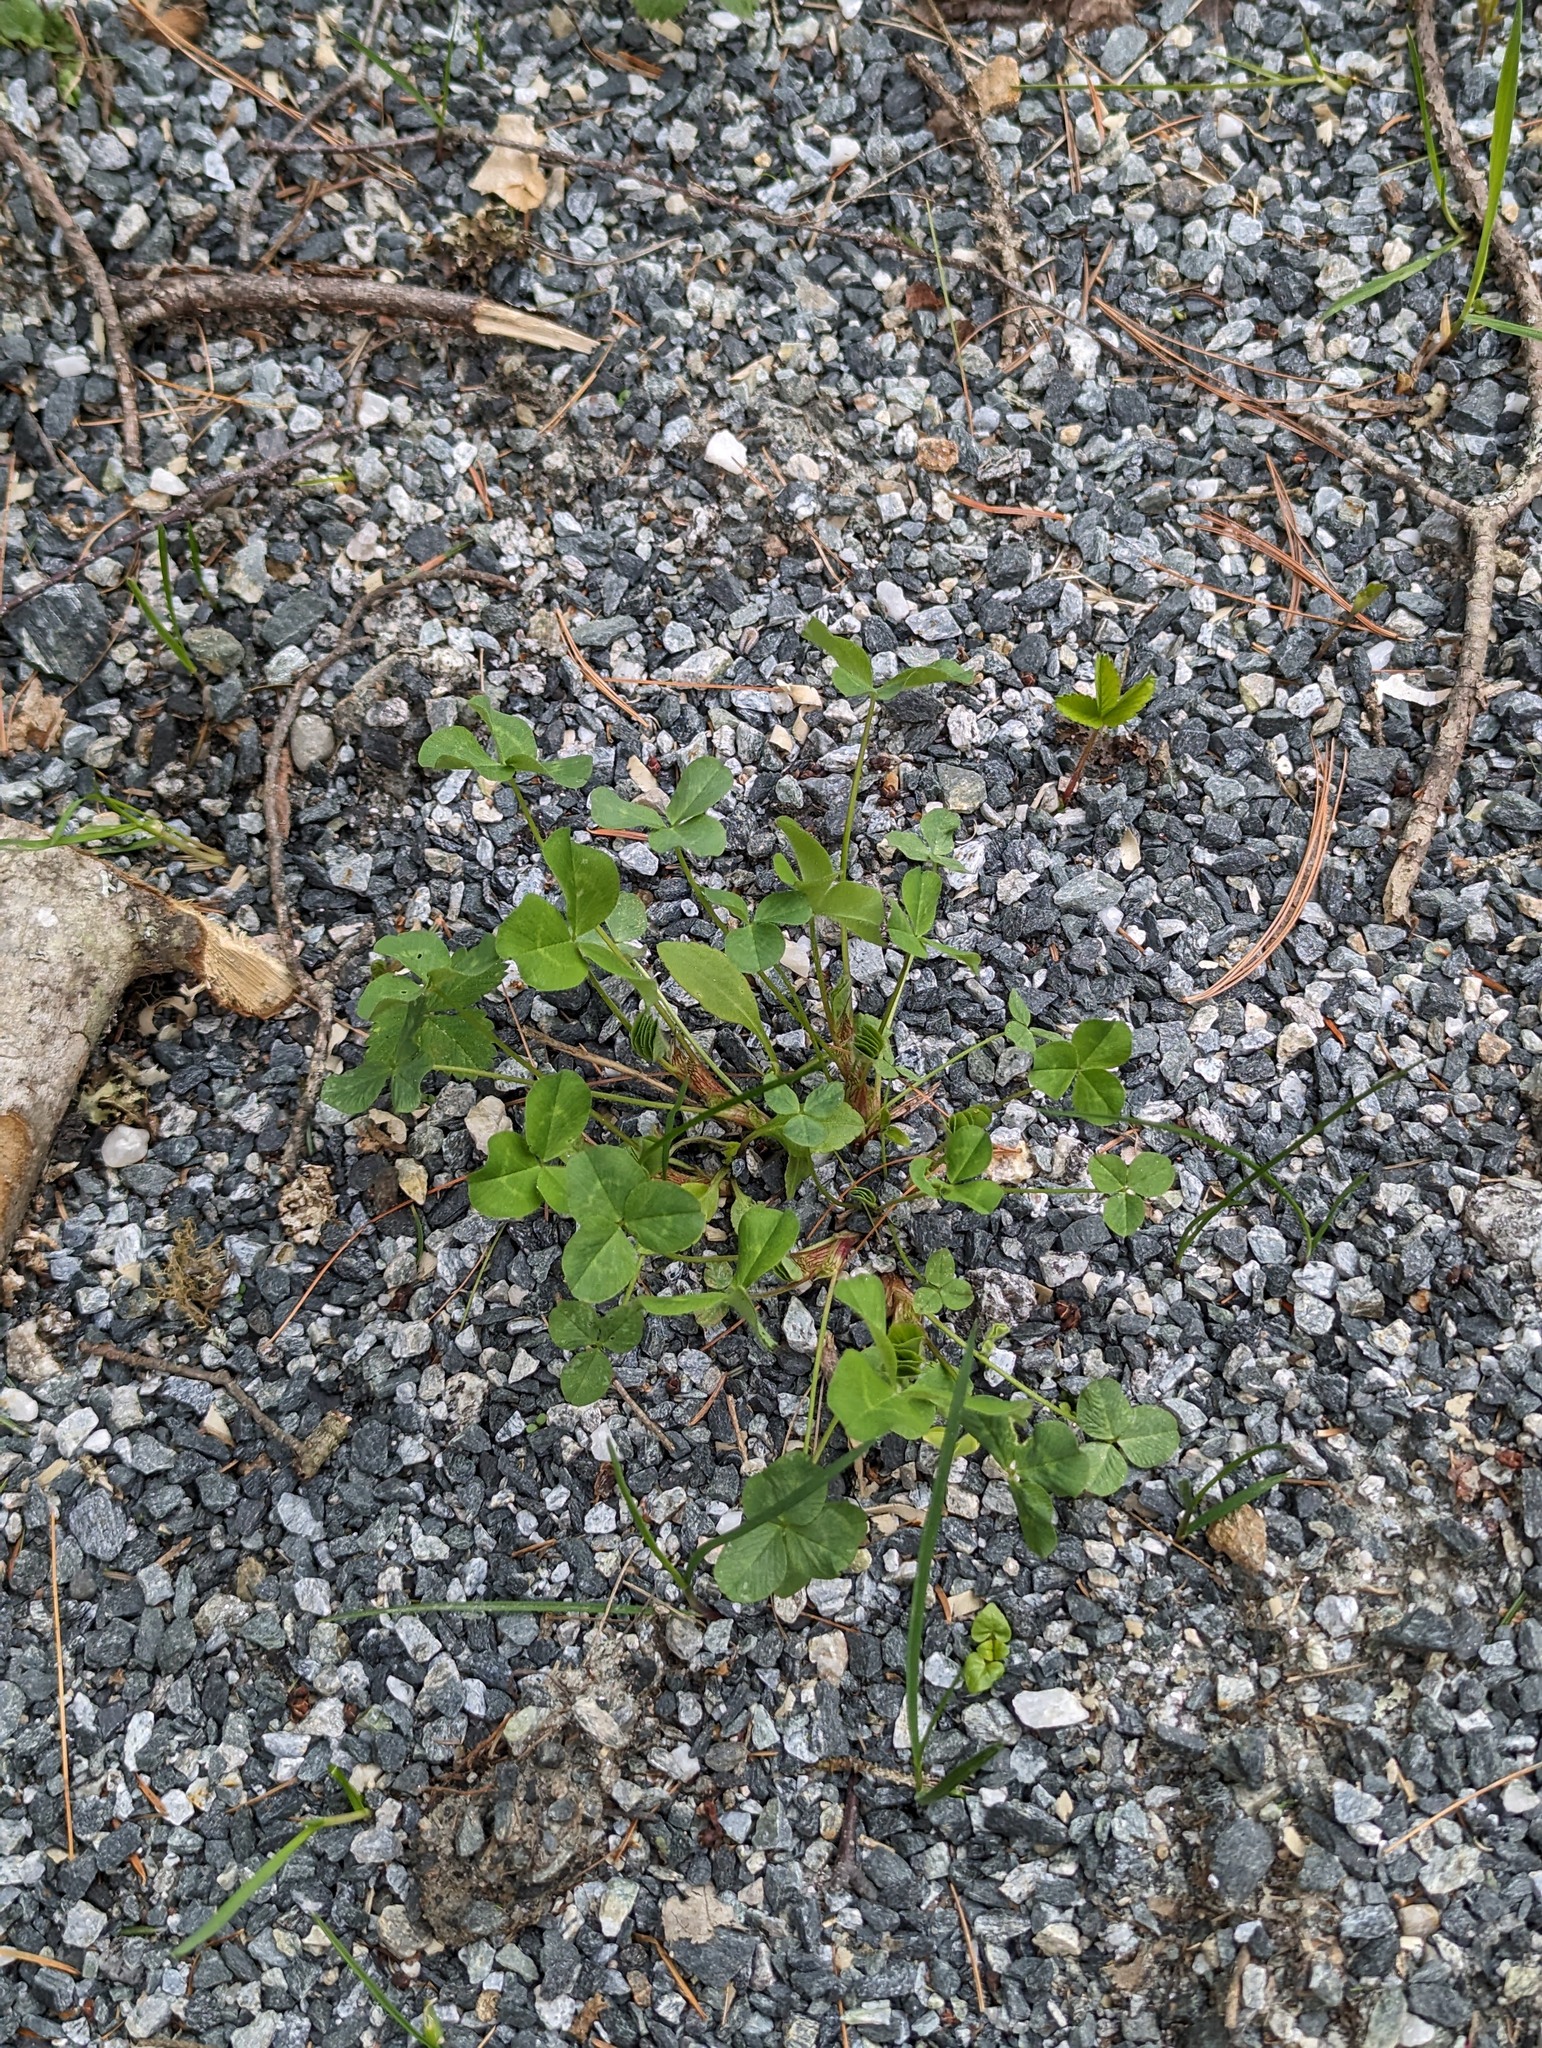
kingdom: Plantae
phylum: Tracheophyta
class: Magnoliopsida
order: Fabales
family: Fabaceae
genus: Trifolium
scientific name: Trifolium pratense
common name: Red clover
